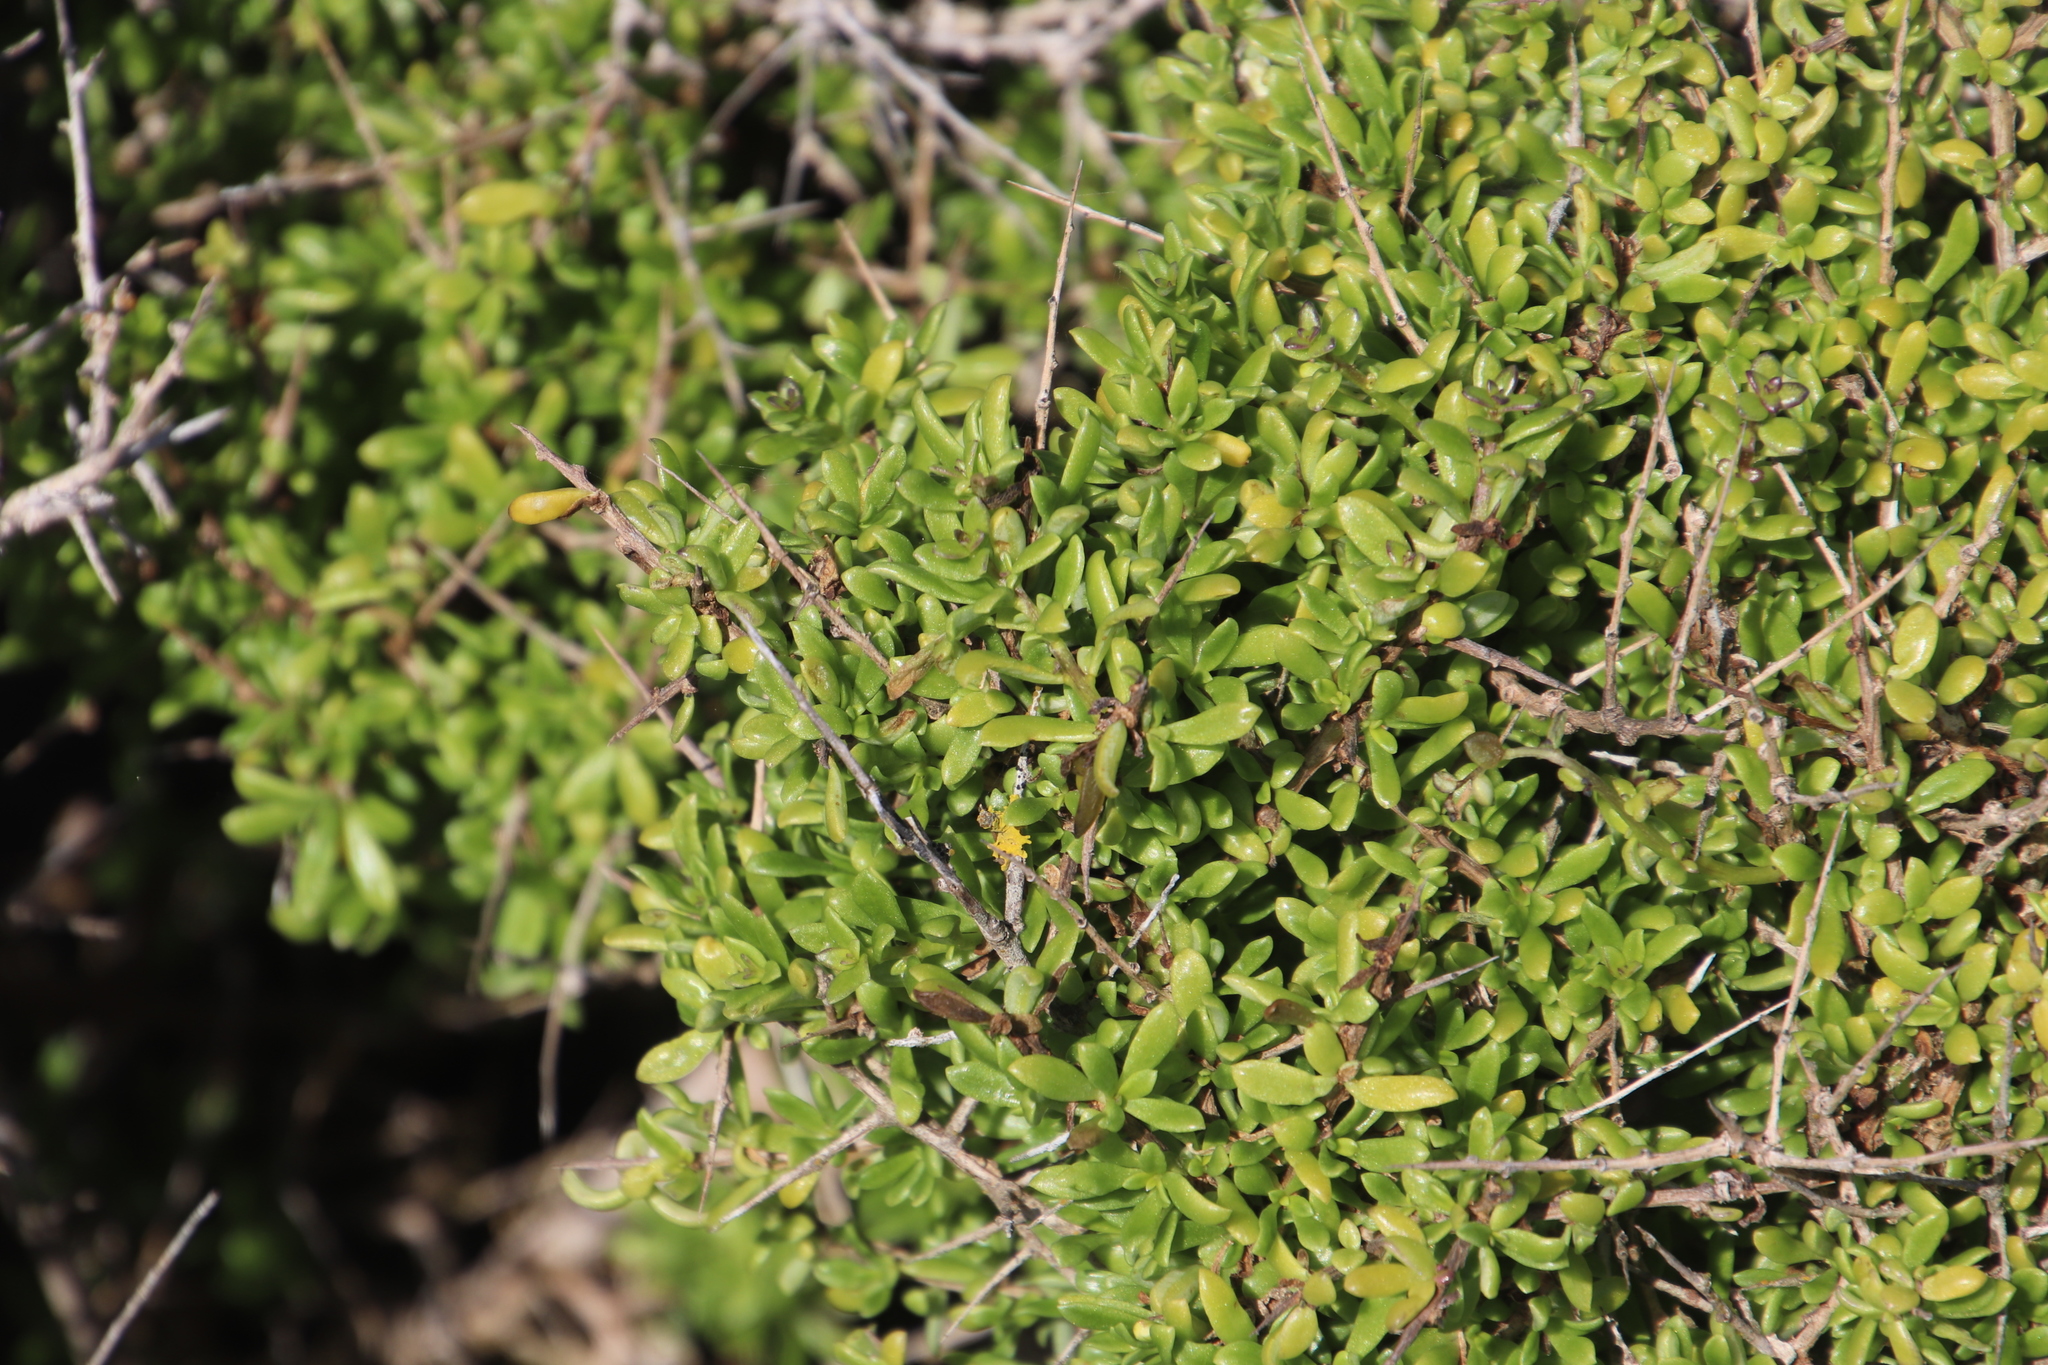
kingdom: Plantae
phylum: Tracheophyta
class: Magnoliopsida
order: Solanales
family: Solanaceae
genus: Lycium
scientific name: Lycium tetrandrum
